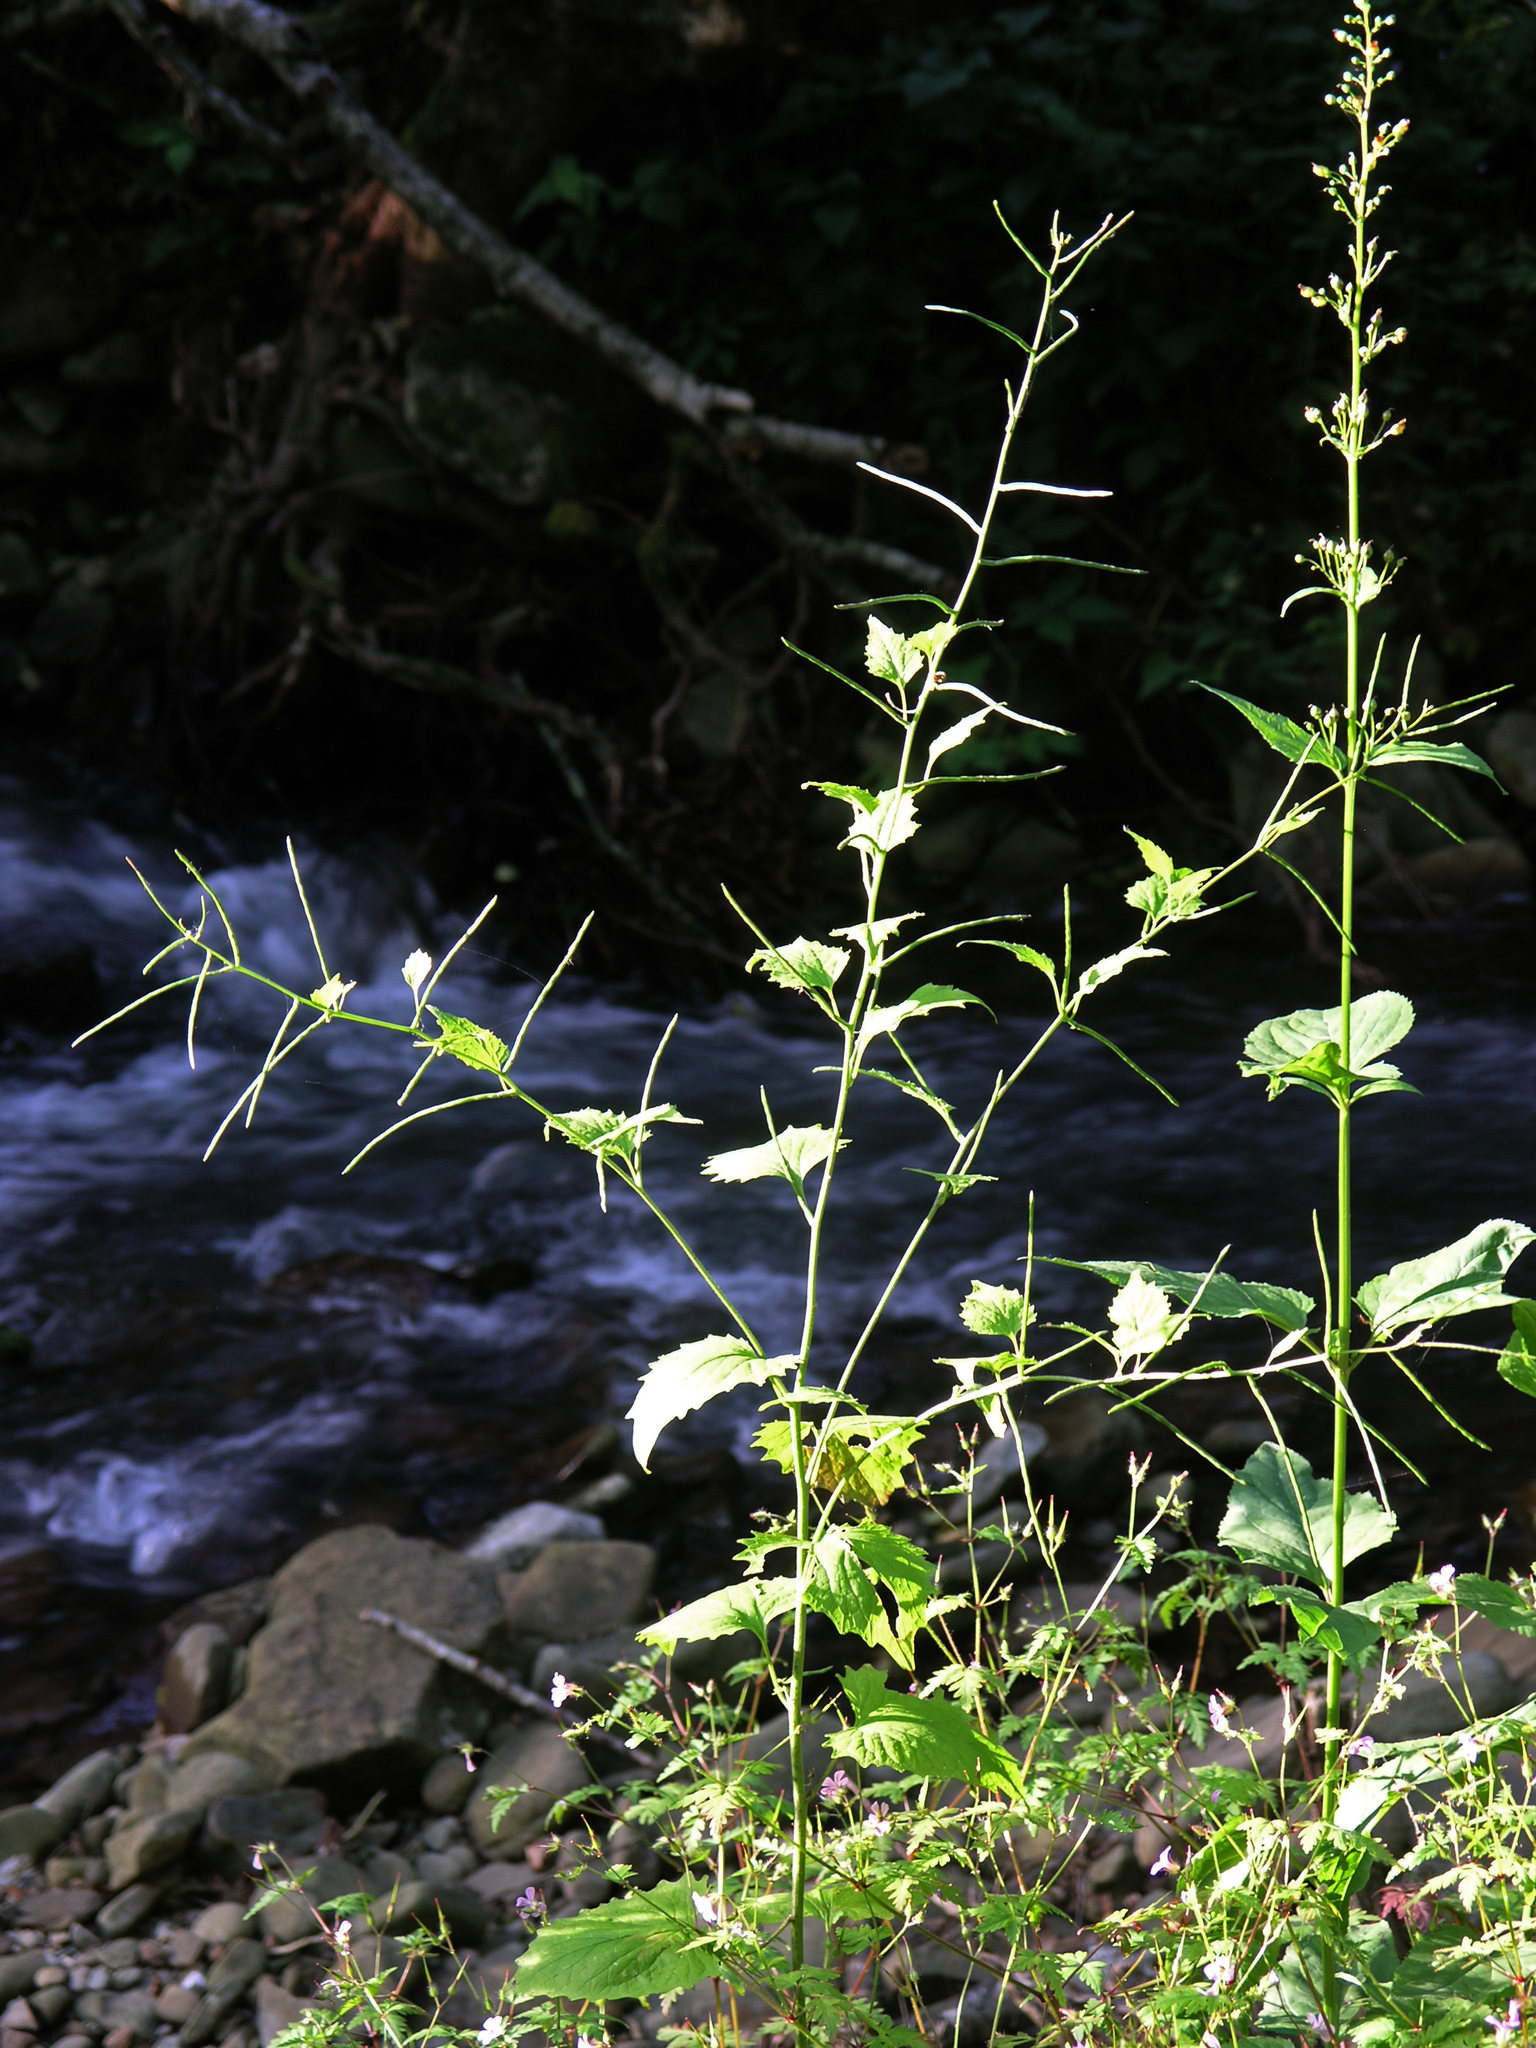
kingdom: Plantae
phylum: Tracheophyta
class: Magnoliopsida
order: Lamiales
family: Scrophulariaceae
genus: Scrophularia
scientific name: Scrophularia nodosa
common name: Common figwort
